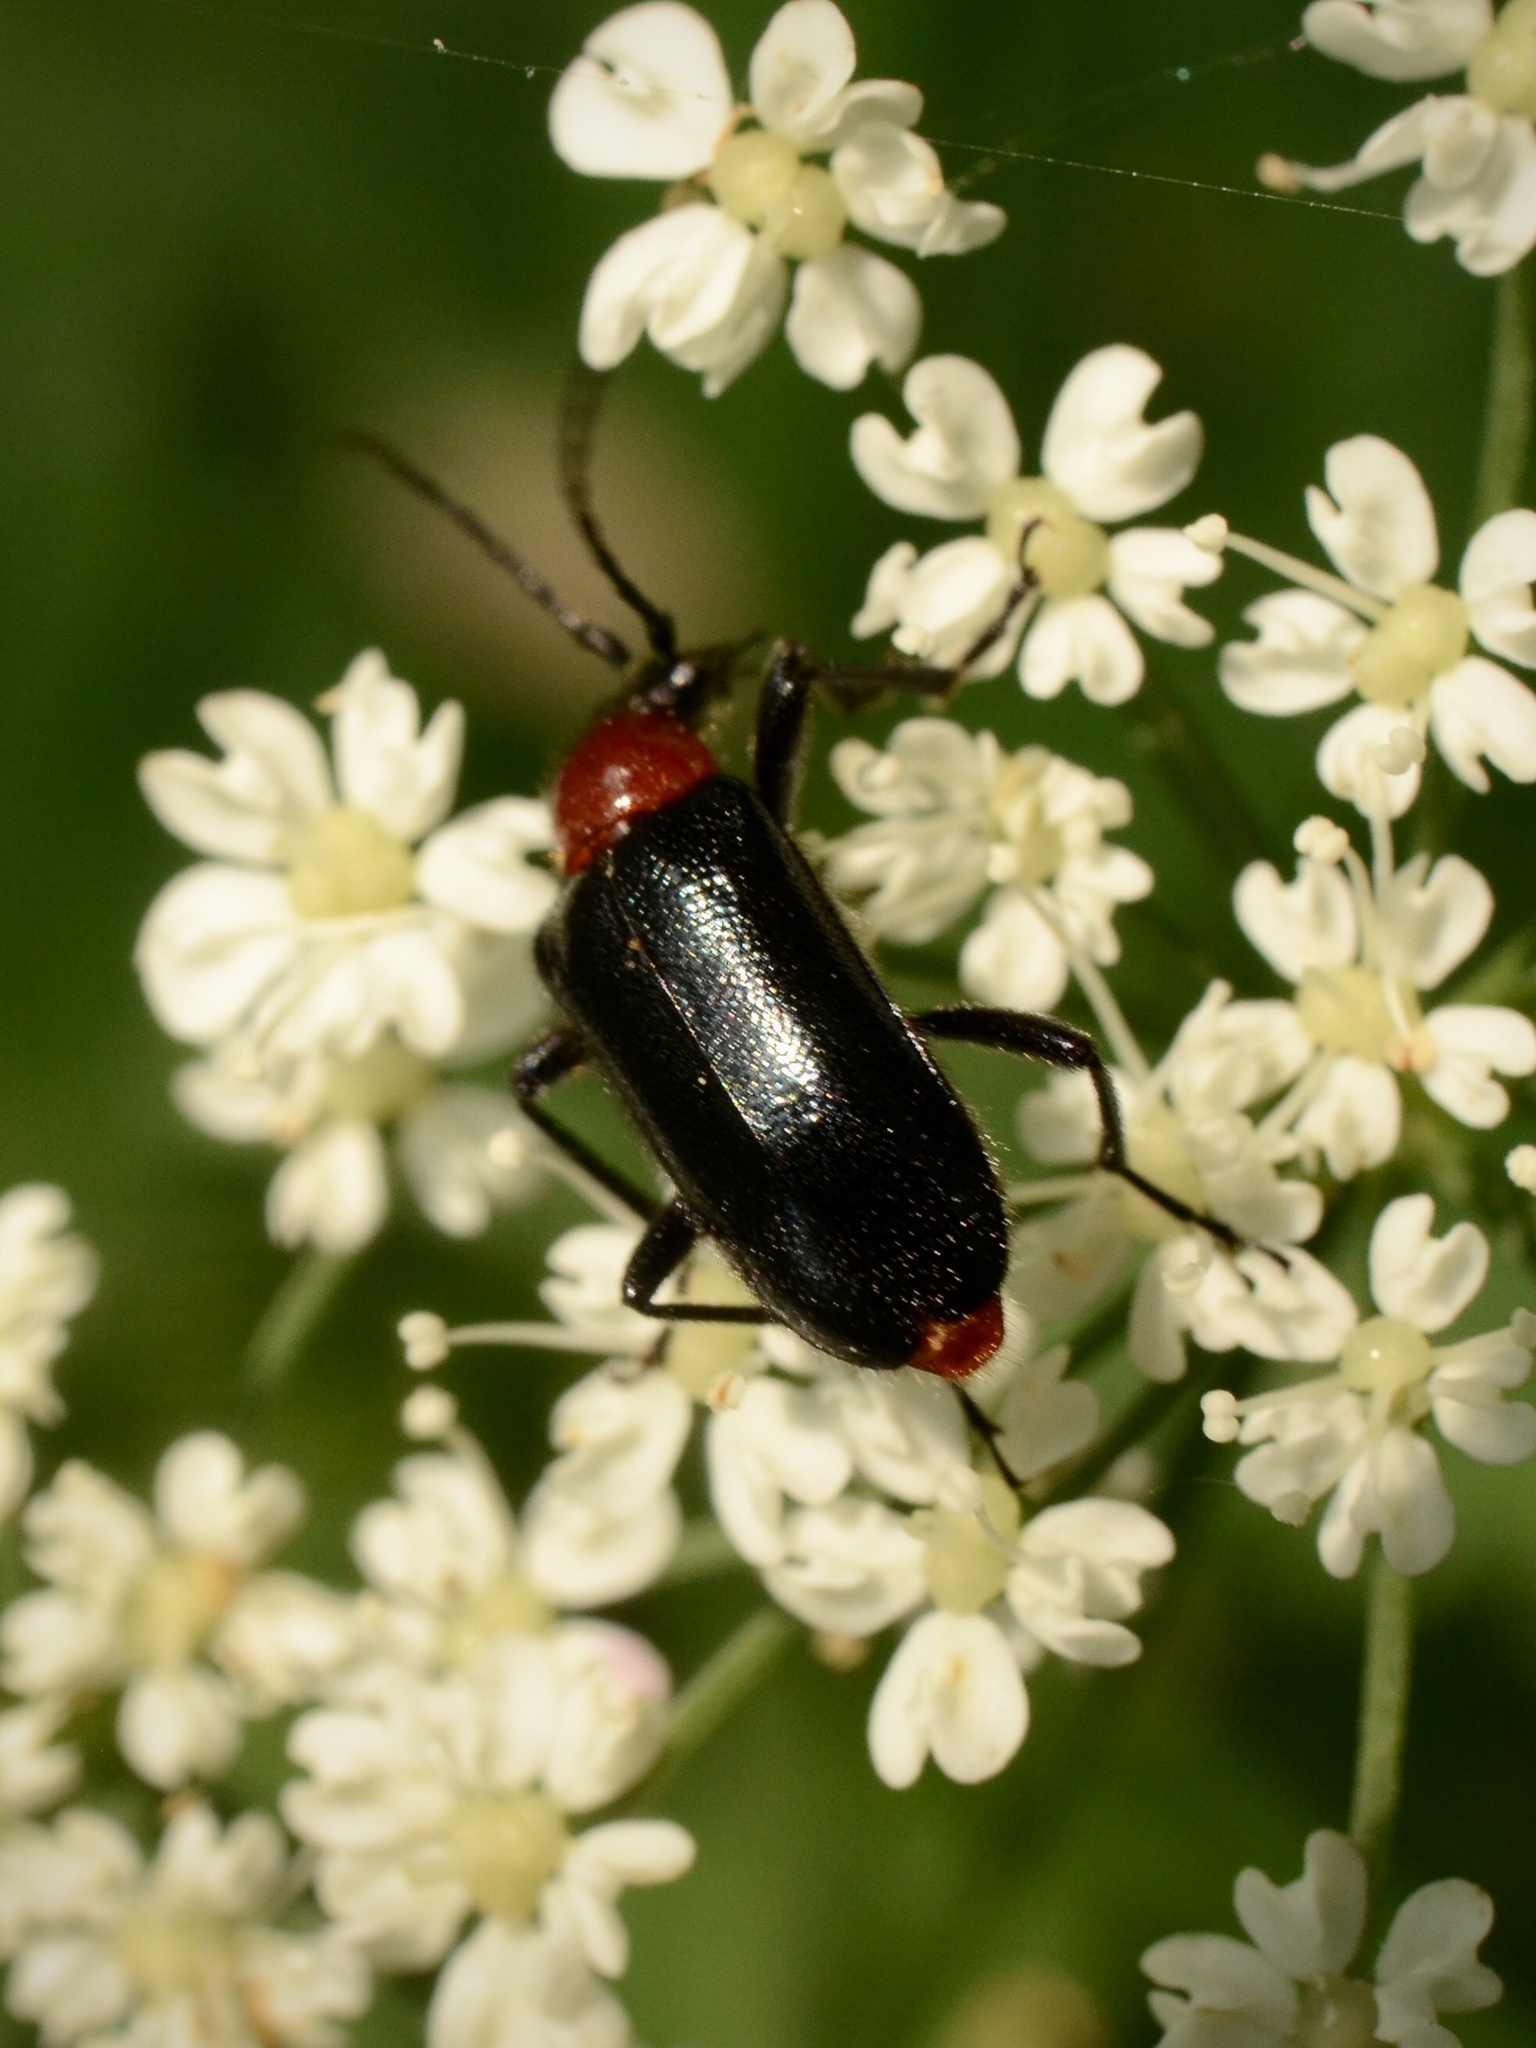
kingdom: Animalia
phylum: Arthropoda
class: Insecta
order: Coleoptera
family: Cerambycidae
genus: Dinoptera
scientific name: Dinoptera collaris
